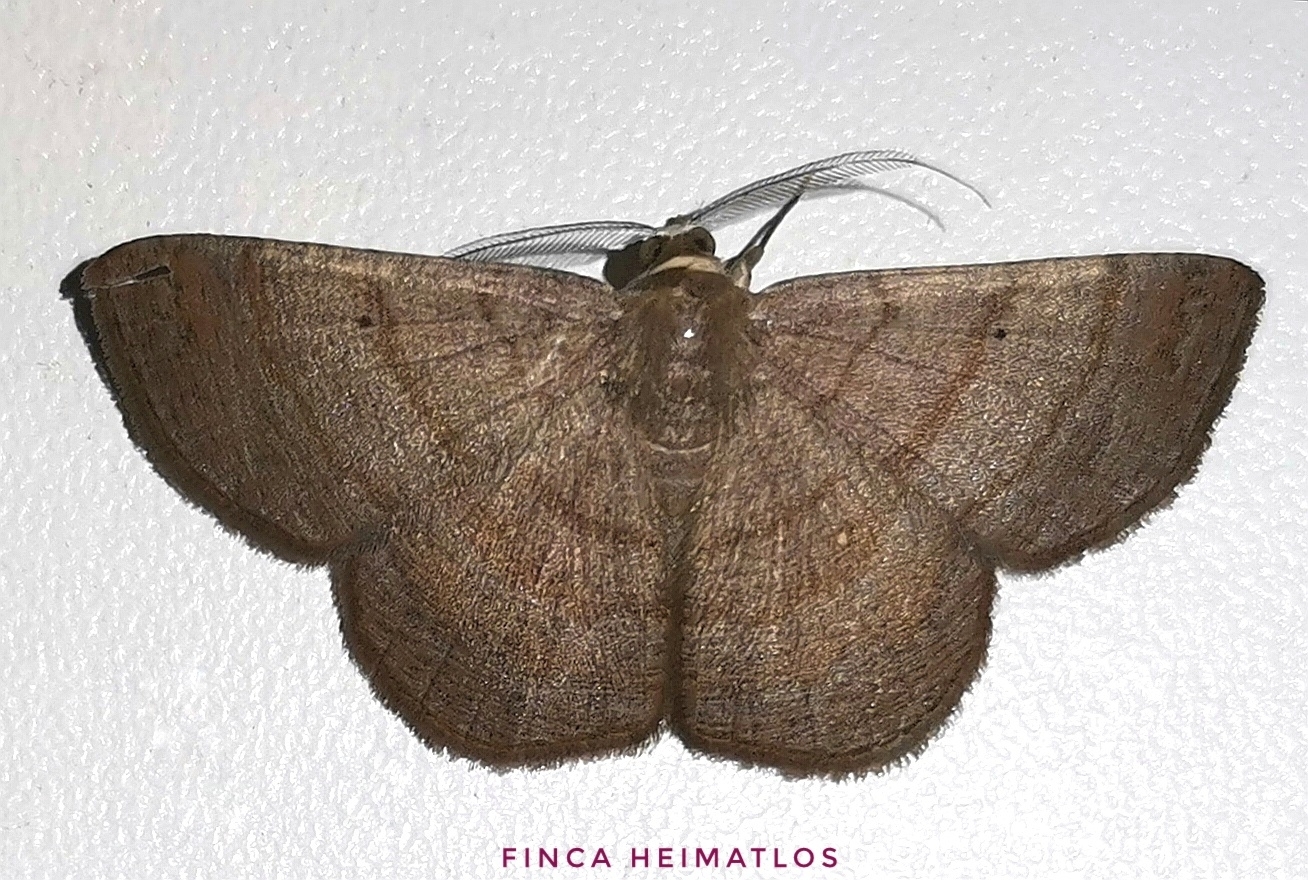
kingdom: Animalia
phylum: Arthropoda
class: Insecta
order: Lepidoptera
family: Geometridae
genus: Parilexia
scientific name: Parilexia cermala
